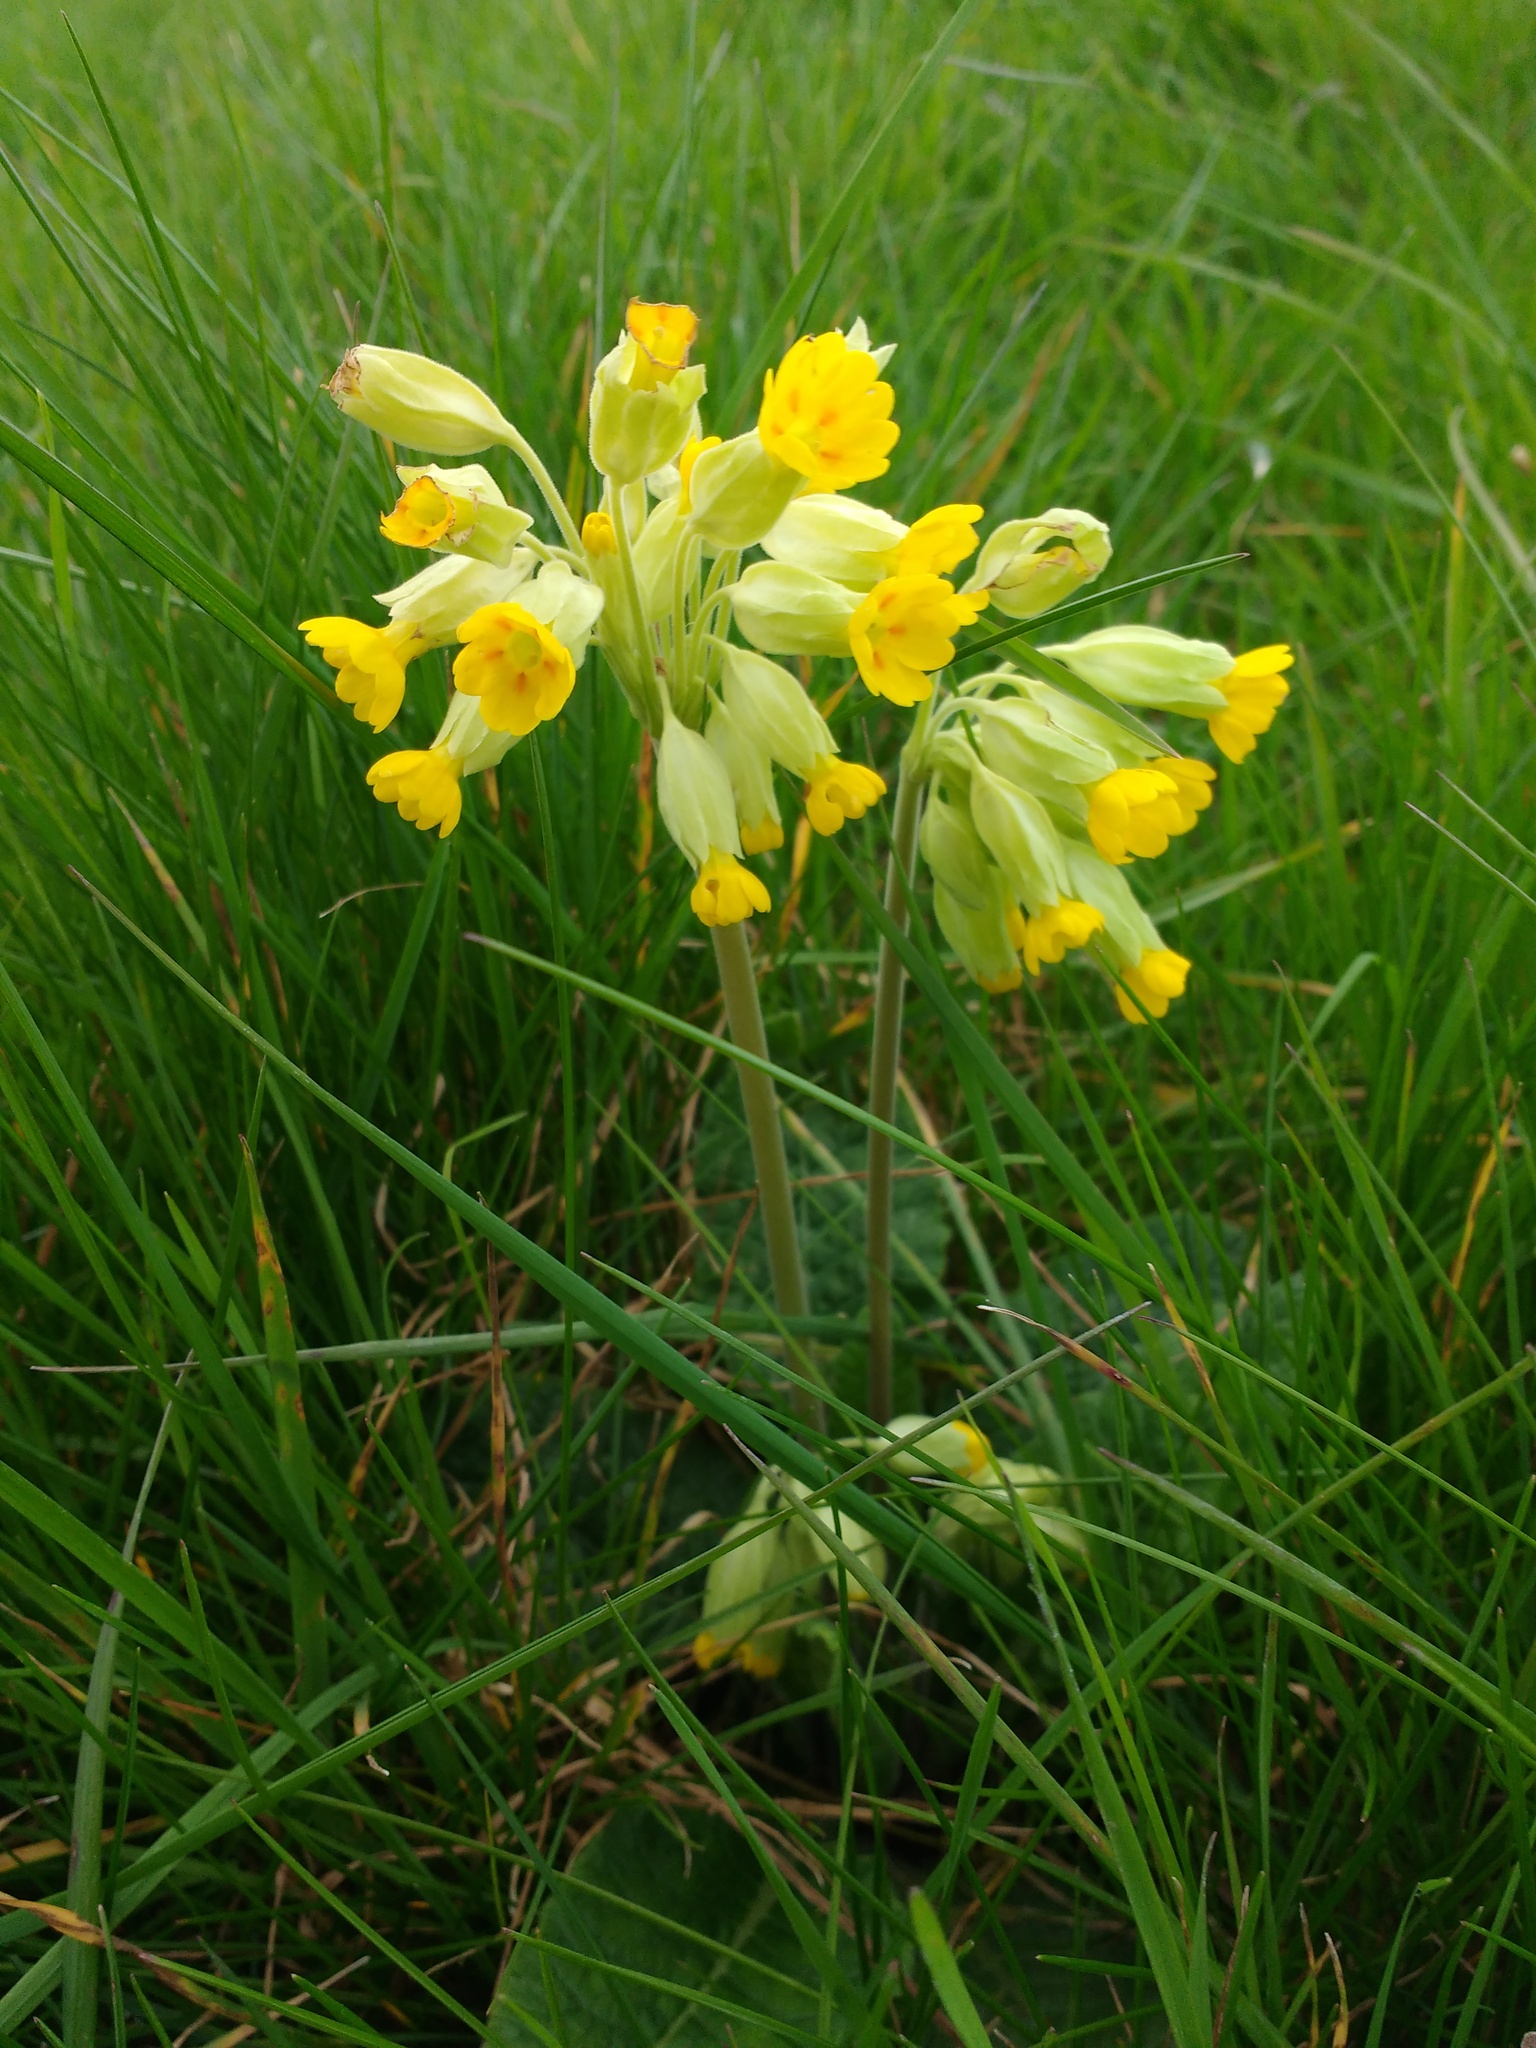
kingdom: Plantae
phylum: Tracheophyta
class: Magnoliopsida
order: Ericales
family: Primulaceae
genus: Primula
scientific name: Primula veris
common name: Cowslip
